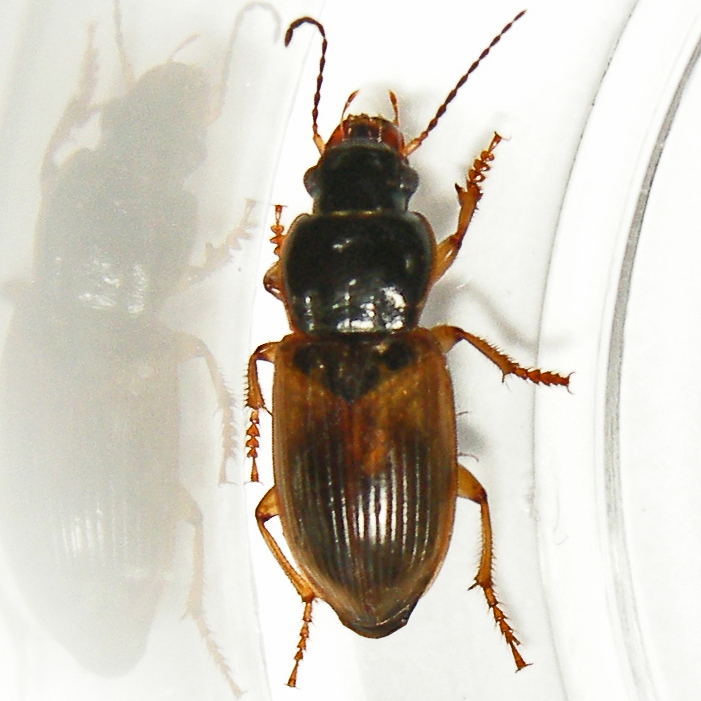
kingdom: Animalia
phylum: Arthropoda
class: Insecta
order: Coleoptera
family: Carabidae
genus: Anisodactylus
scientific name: Anisodactylus sanctaecrucis
